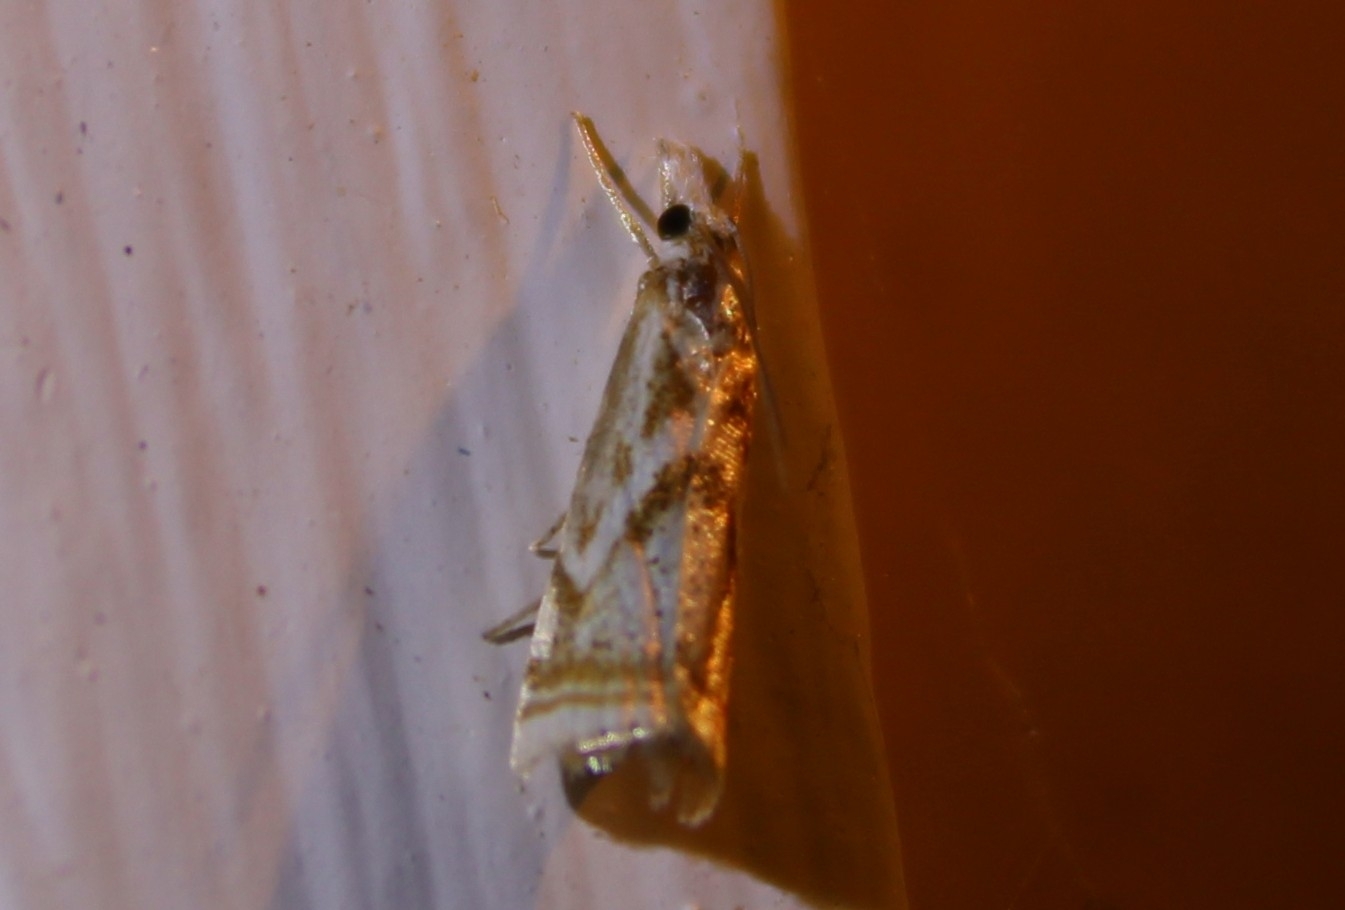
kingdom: Animalia
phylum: Arthropoda
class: Insecta
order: Lepidoptera
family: Crambidae
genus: Microcrambus
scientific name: Microcrambus elegans
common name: Elegant grass-veneer
